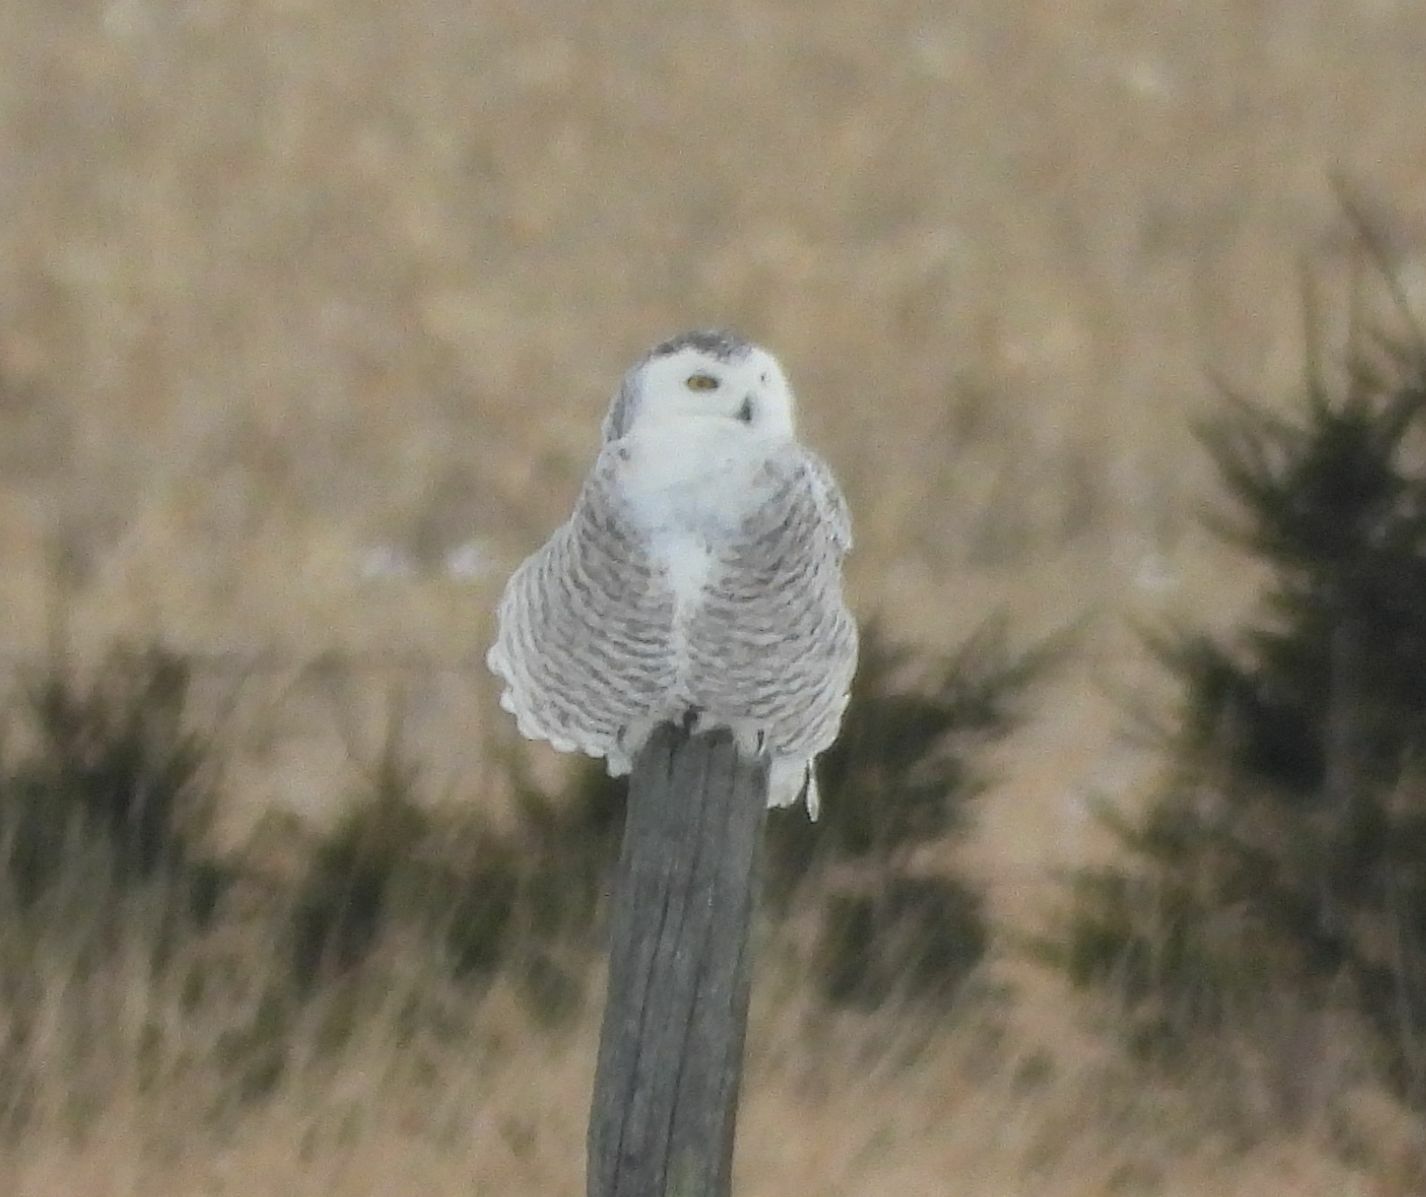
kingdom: Animalia
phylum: Chordata
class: Aves
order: Strigiformes
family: Strigidae
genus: Bubo
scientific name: Bubo scandiacus
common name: Snowy owl
